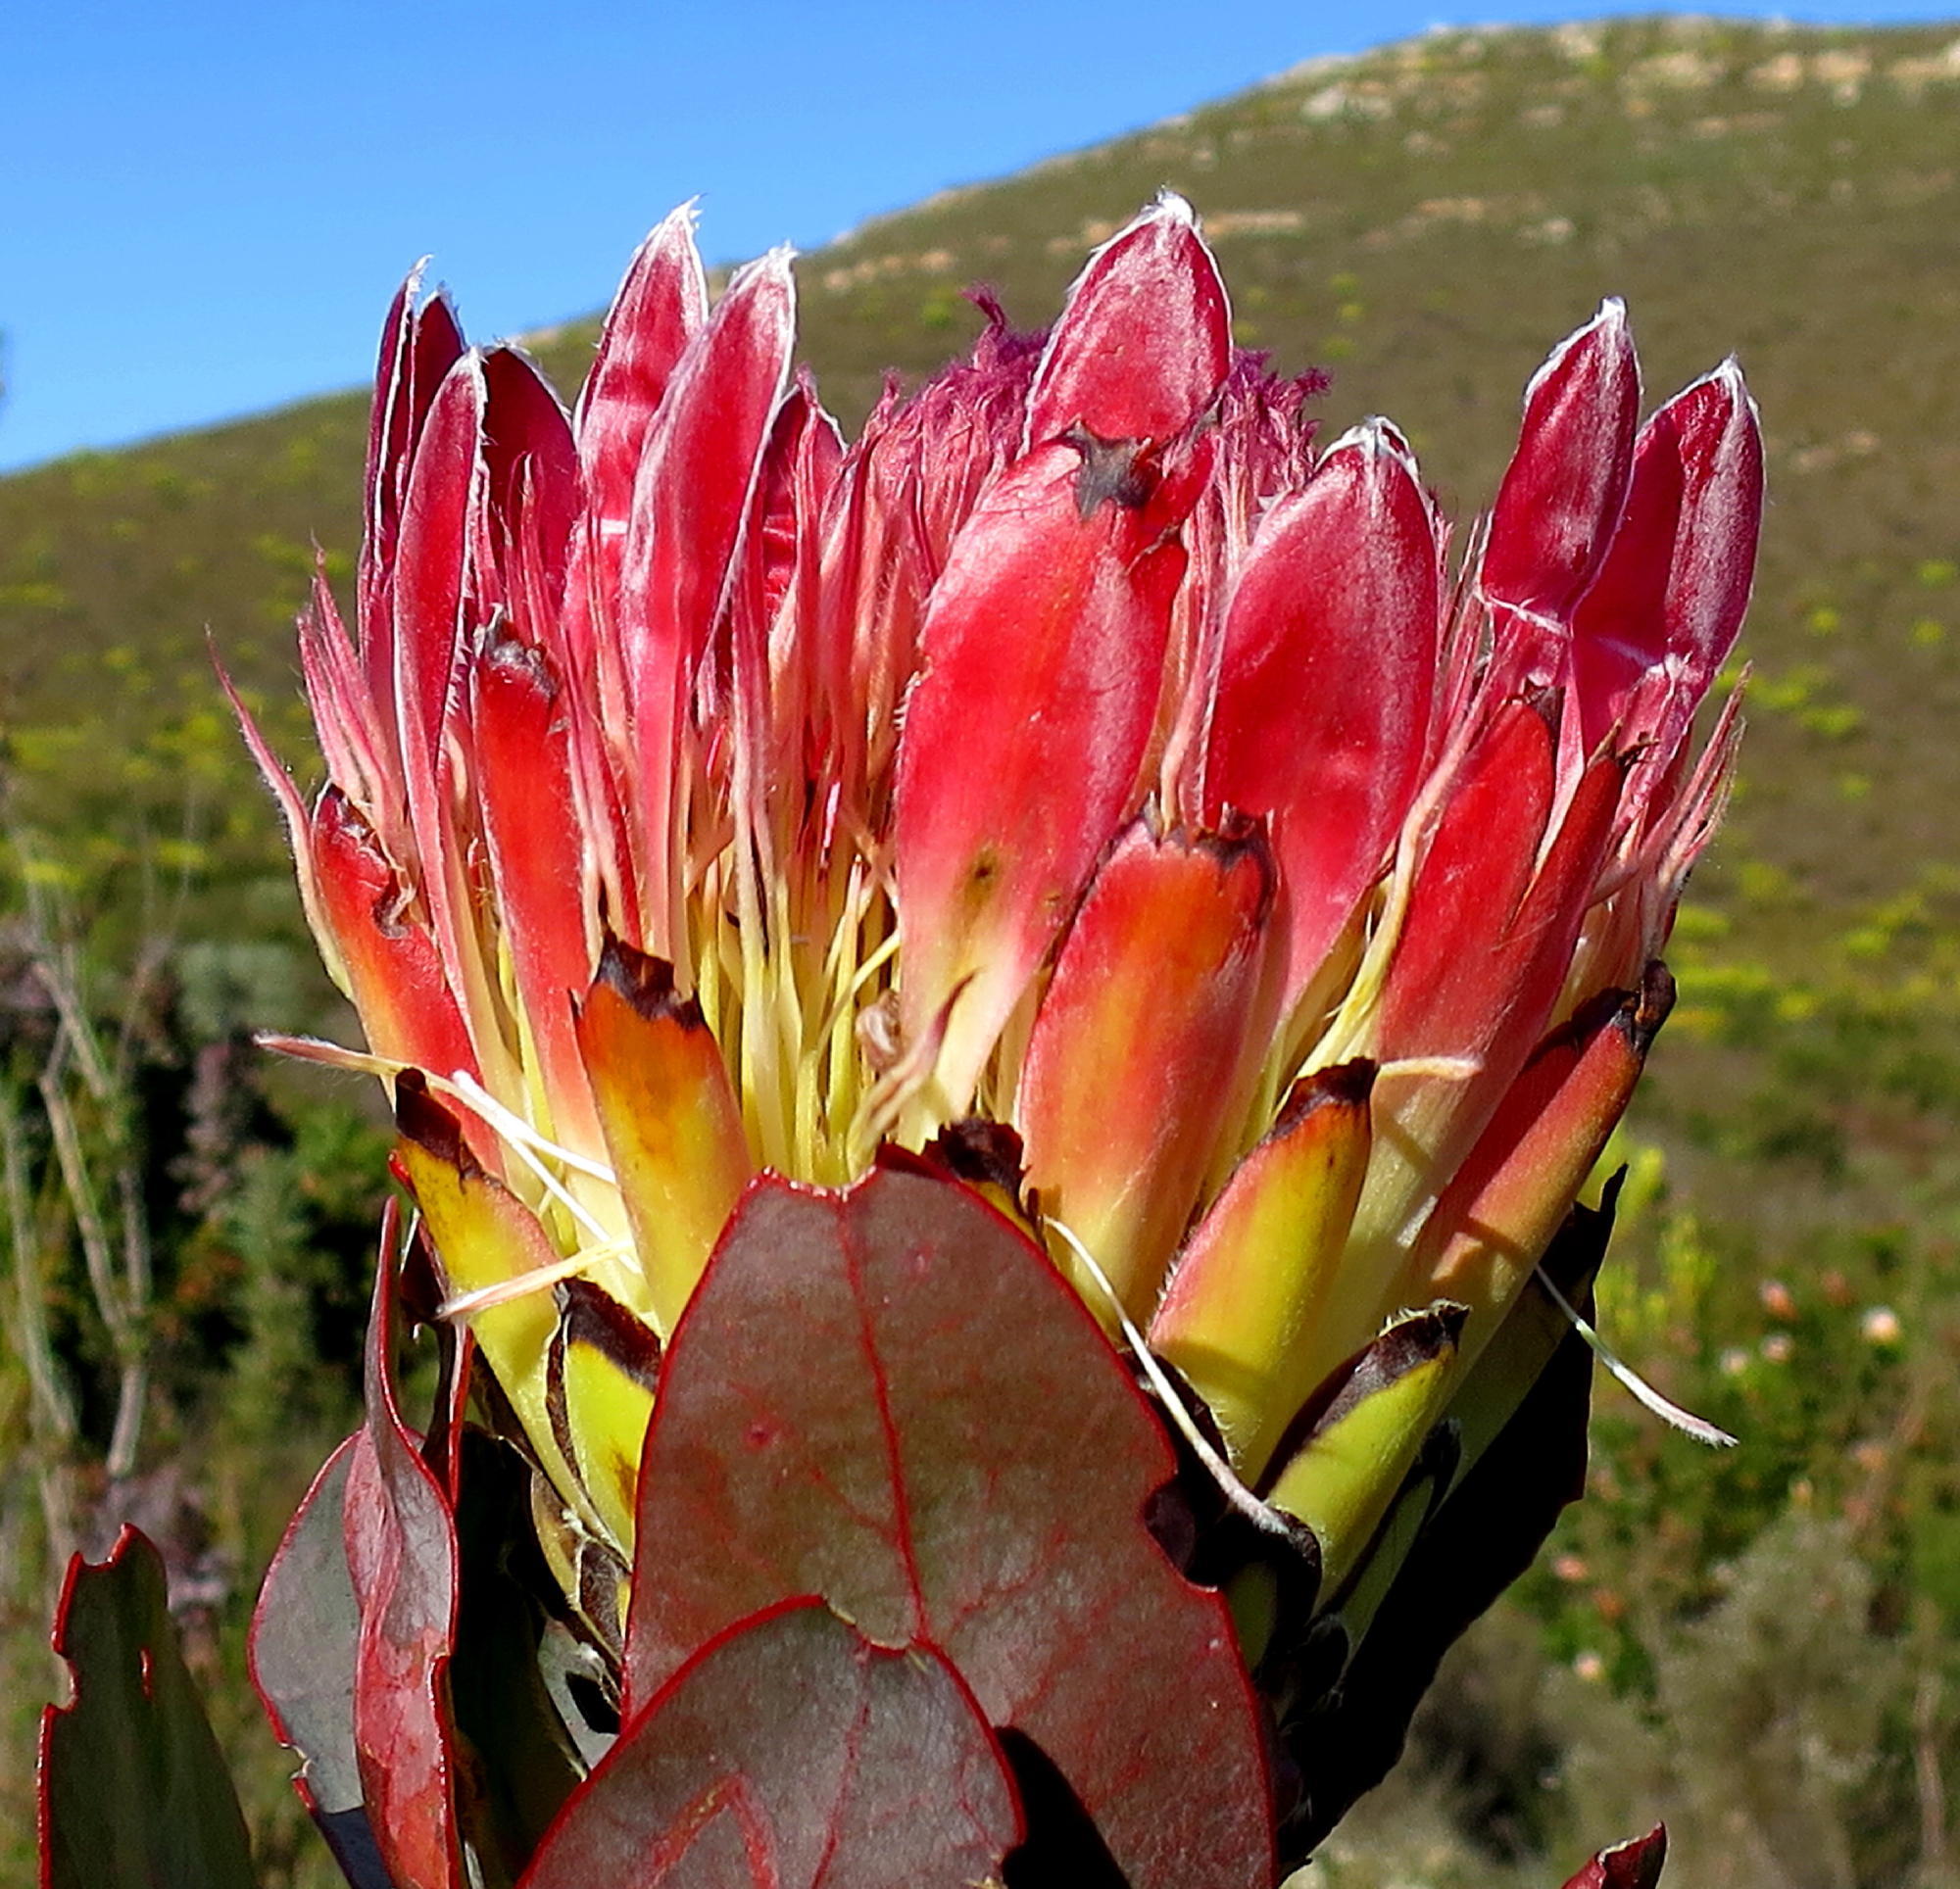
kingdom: Plantae
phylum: Tracheophyta
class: Magnoliopsida
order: Proteales
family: Proteaceae
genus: Protea
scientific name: Protea eximia
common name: Broad-leaved sugarbush
